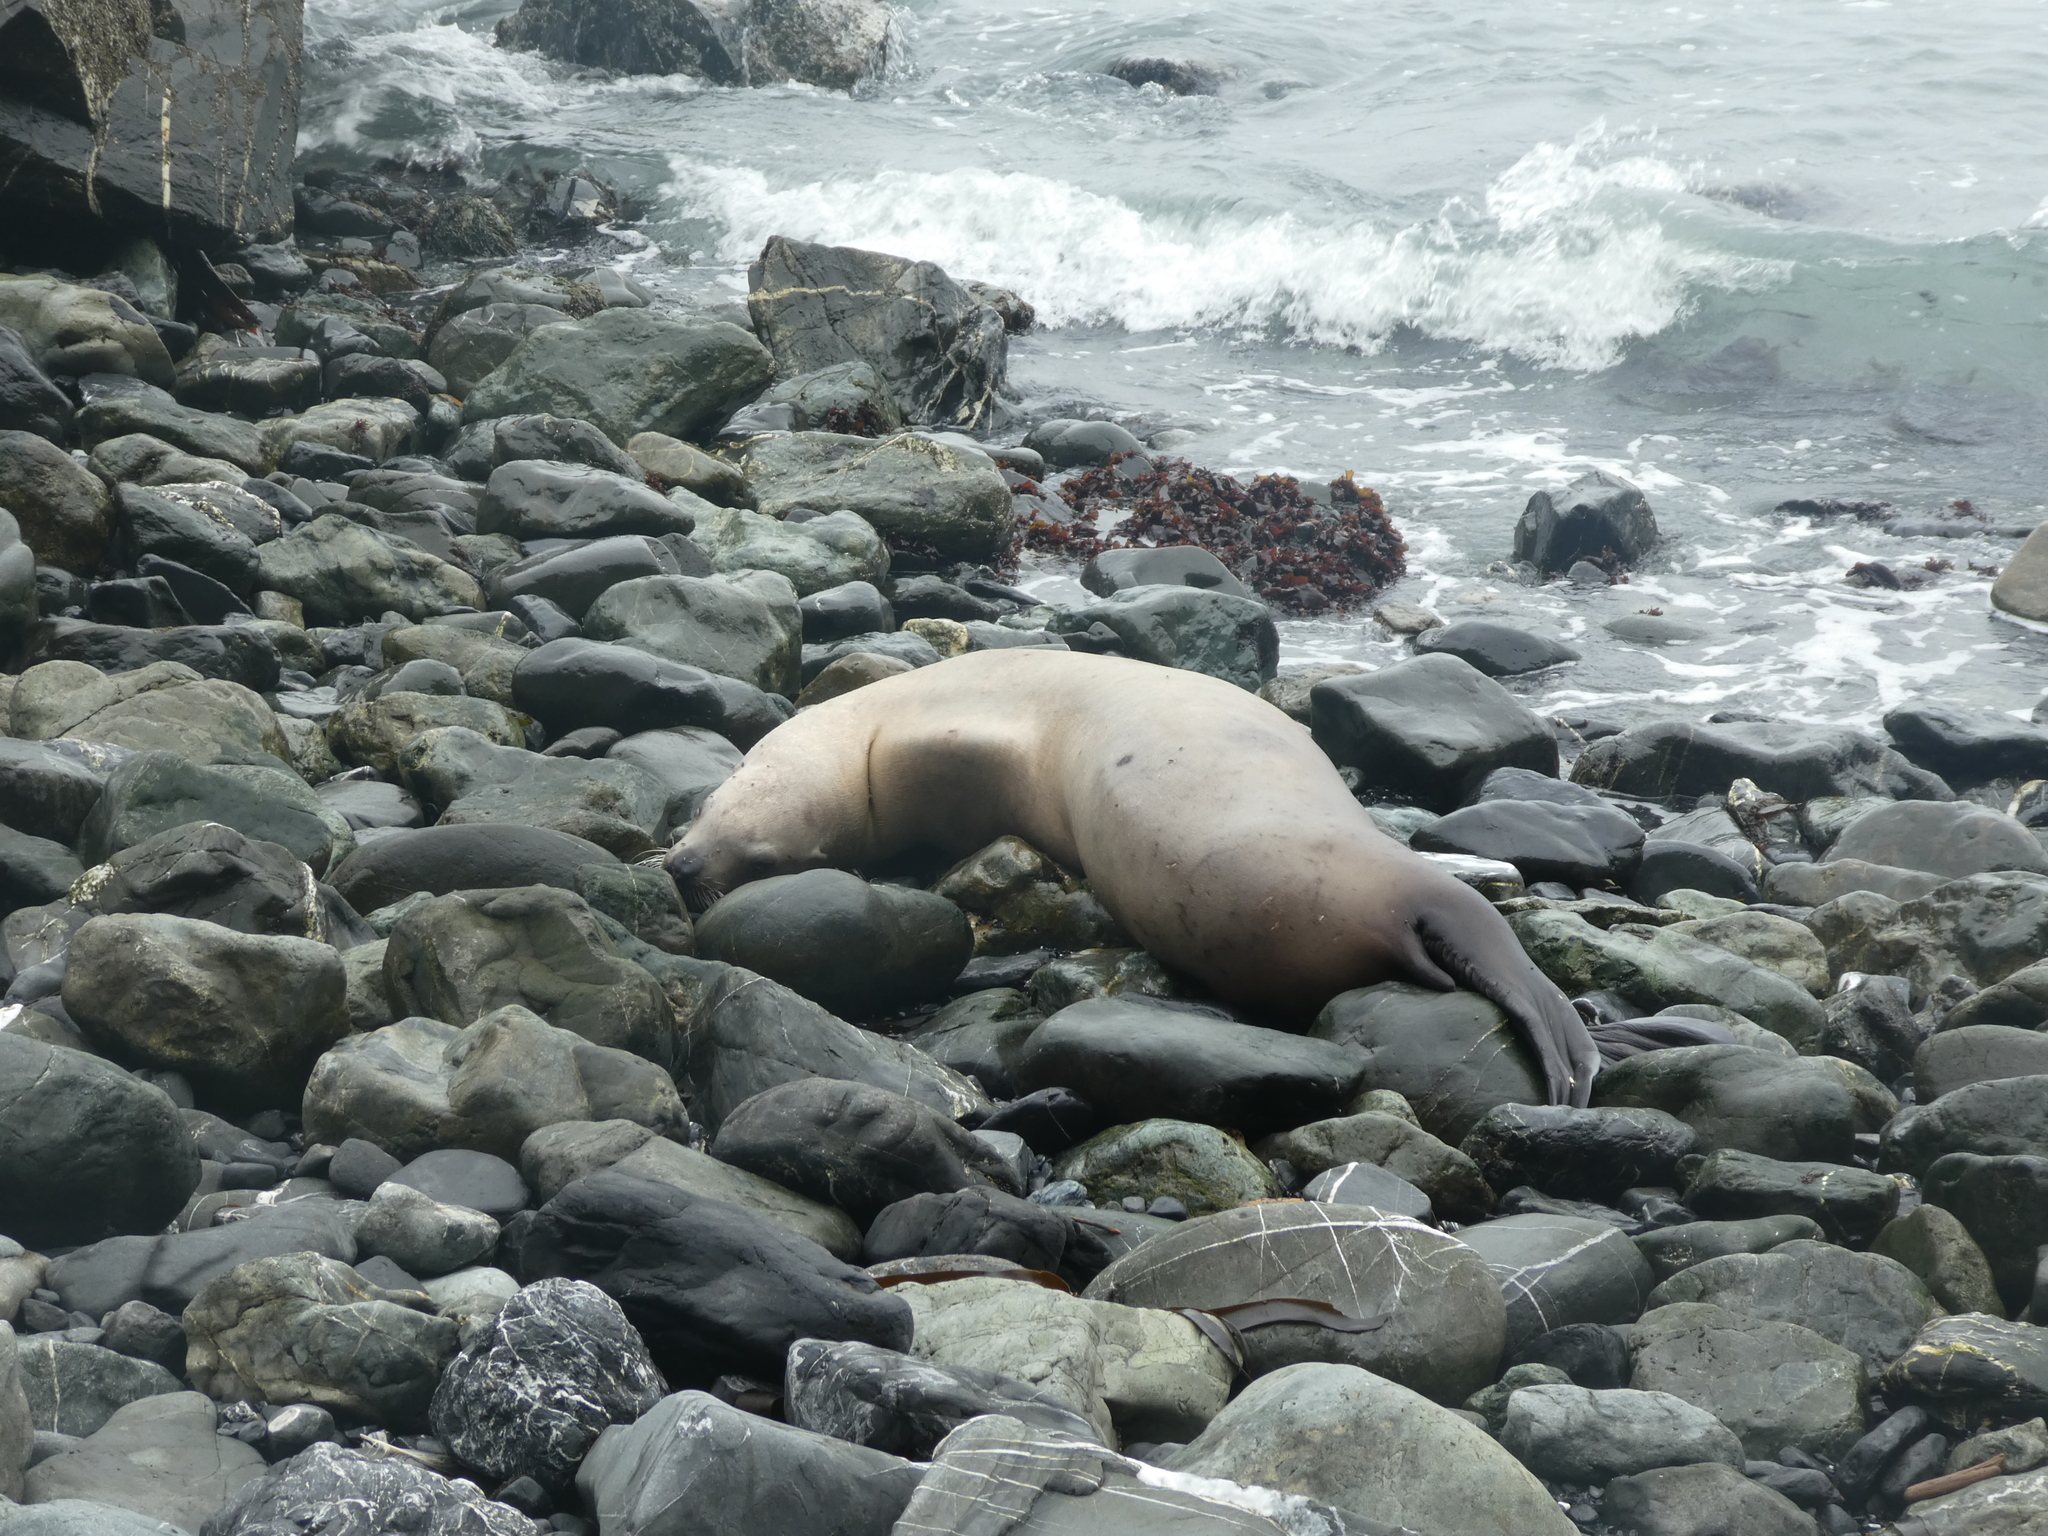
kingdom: Animalia
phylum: Chordata
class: Mammalia
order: Carnivora
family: Otariidae
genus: Zalophus
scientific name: Zalophus californianus
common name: California sea lion
